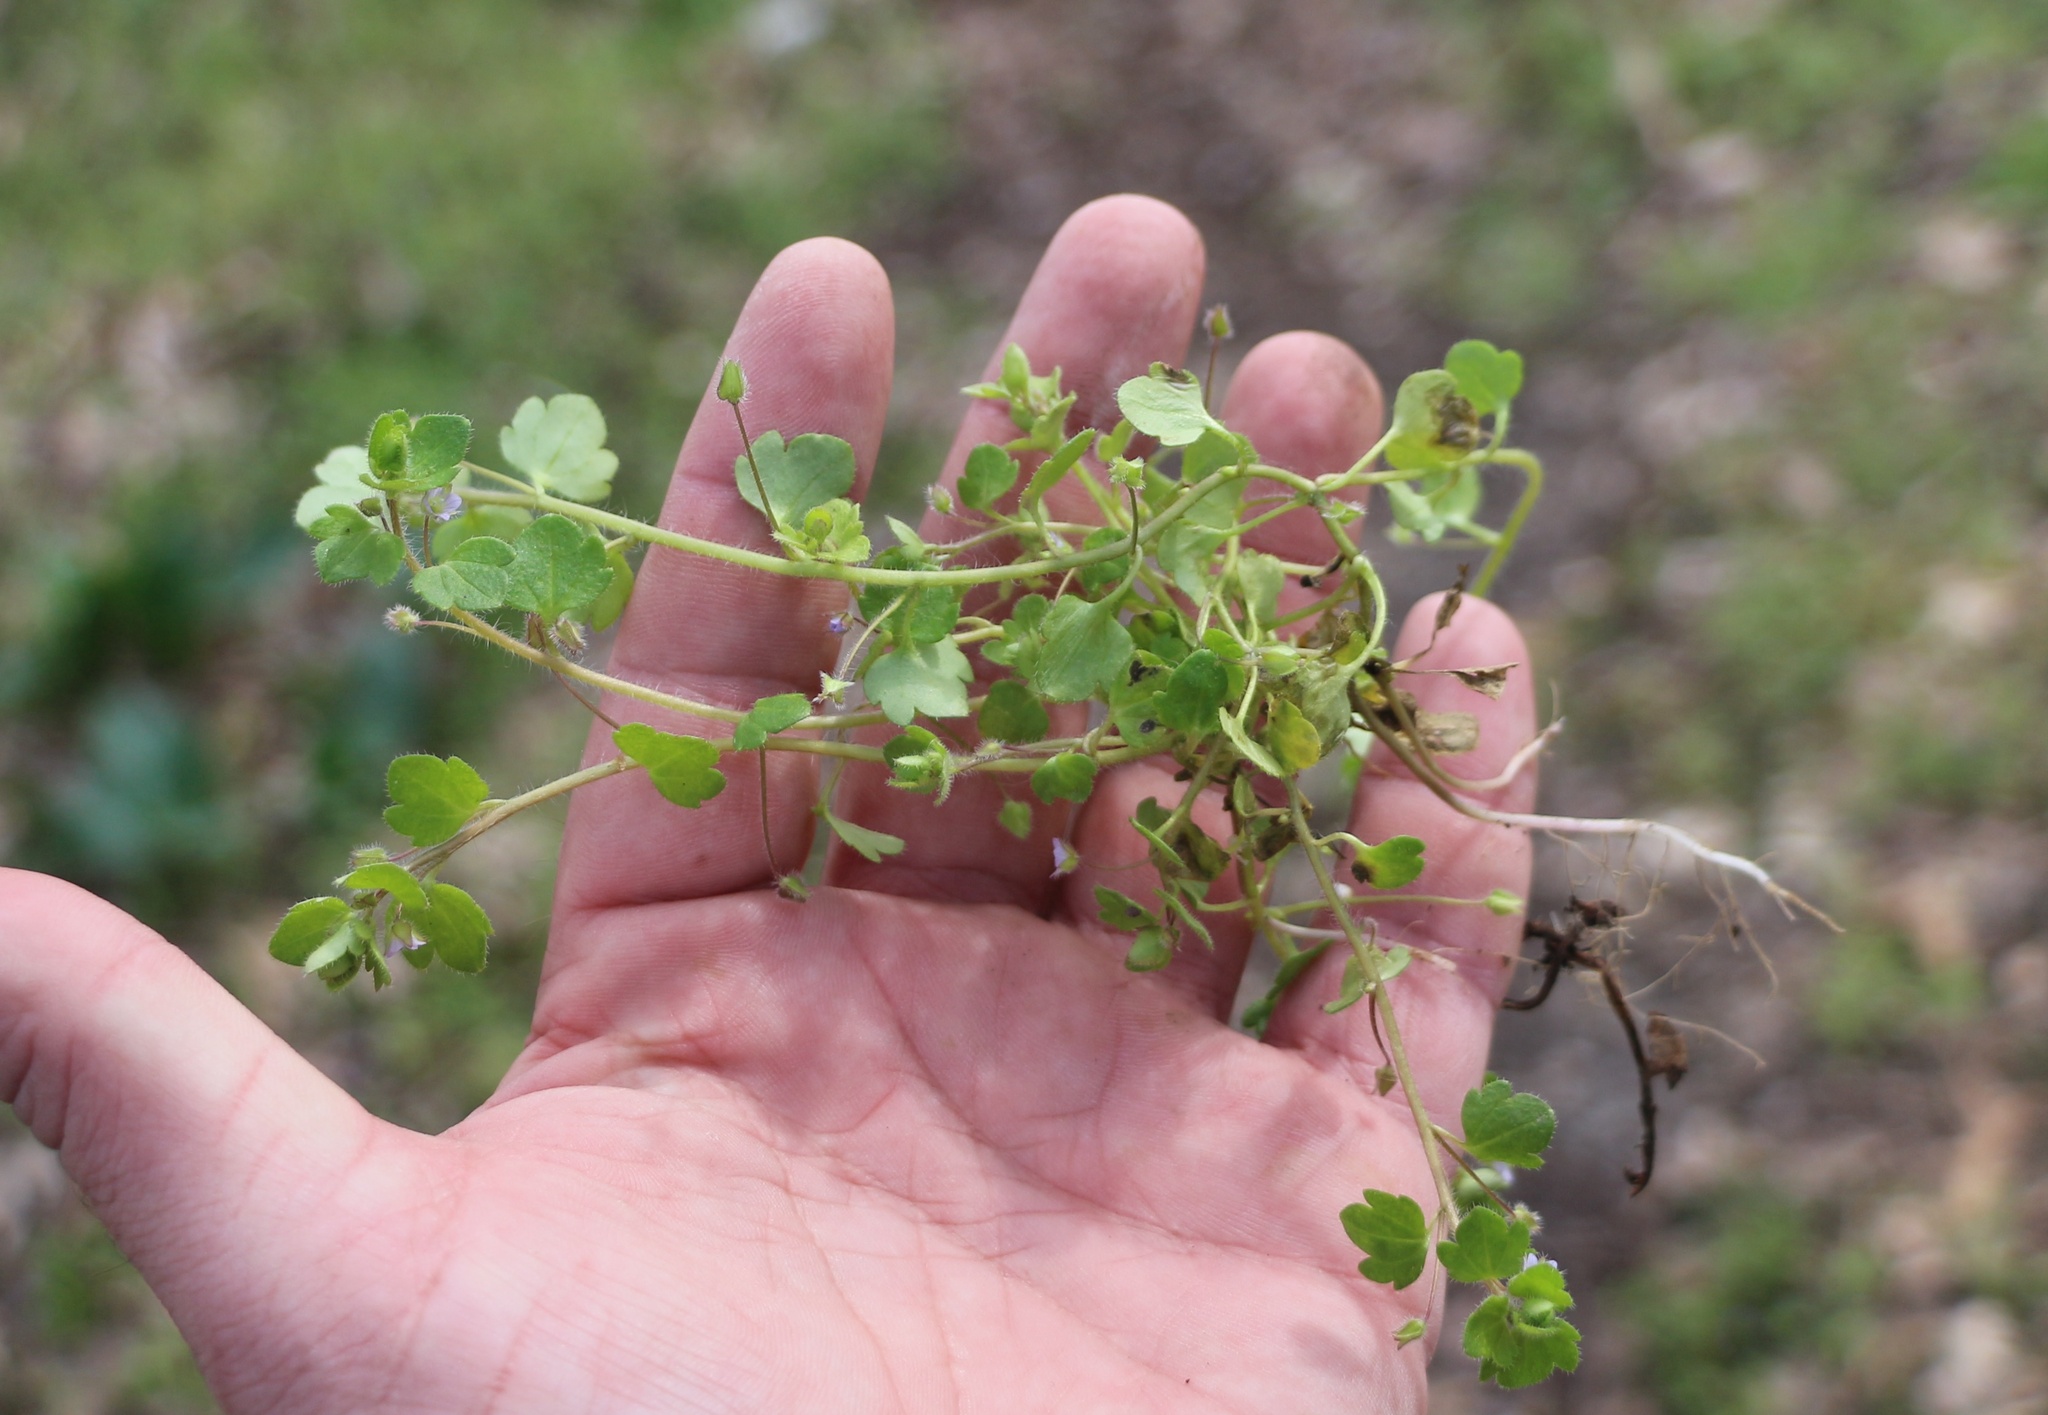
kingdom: Plantae
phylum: Tracheophyta
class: Magnoliopsida
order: Lamiales
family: Plantaginaceae
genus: Veronica
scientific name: Veronica sublobata
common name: False ivy-leaved speedwell
